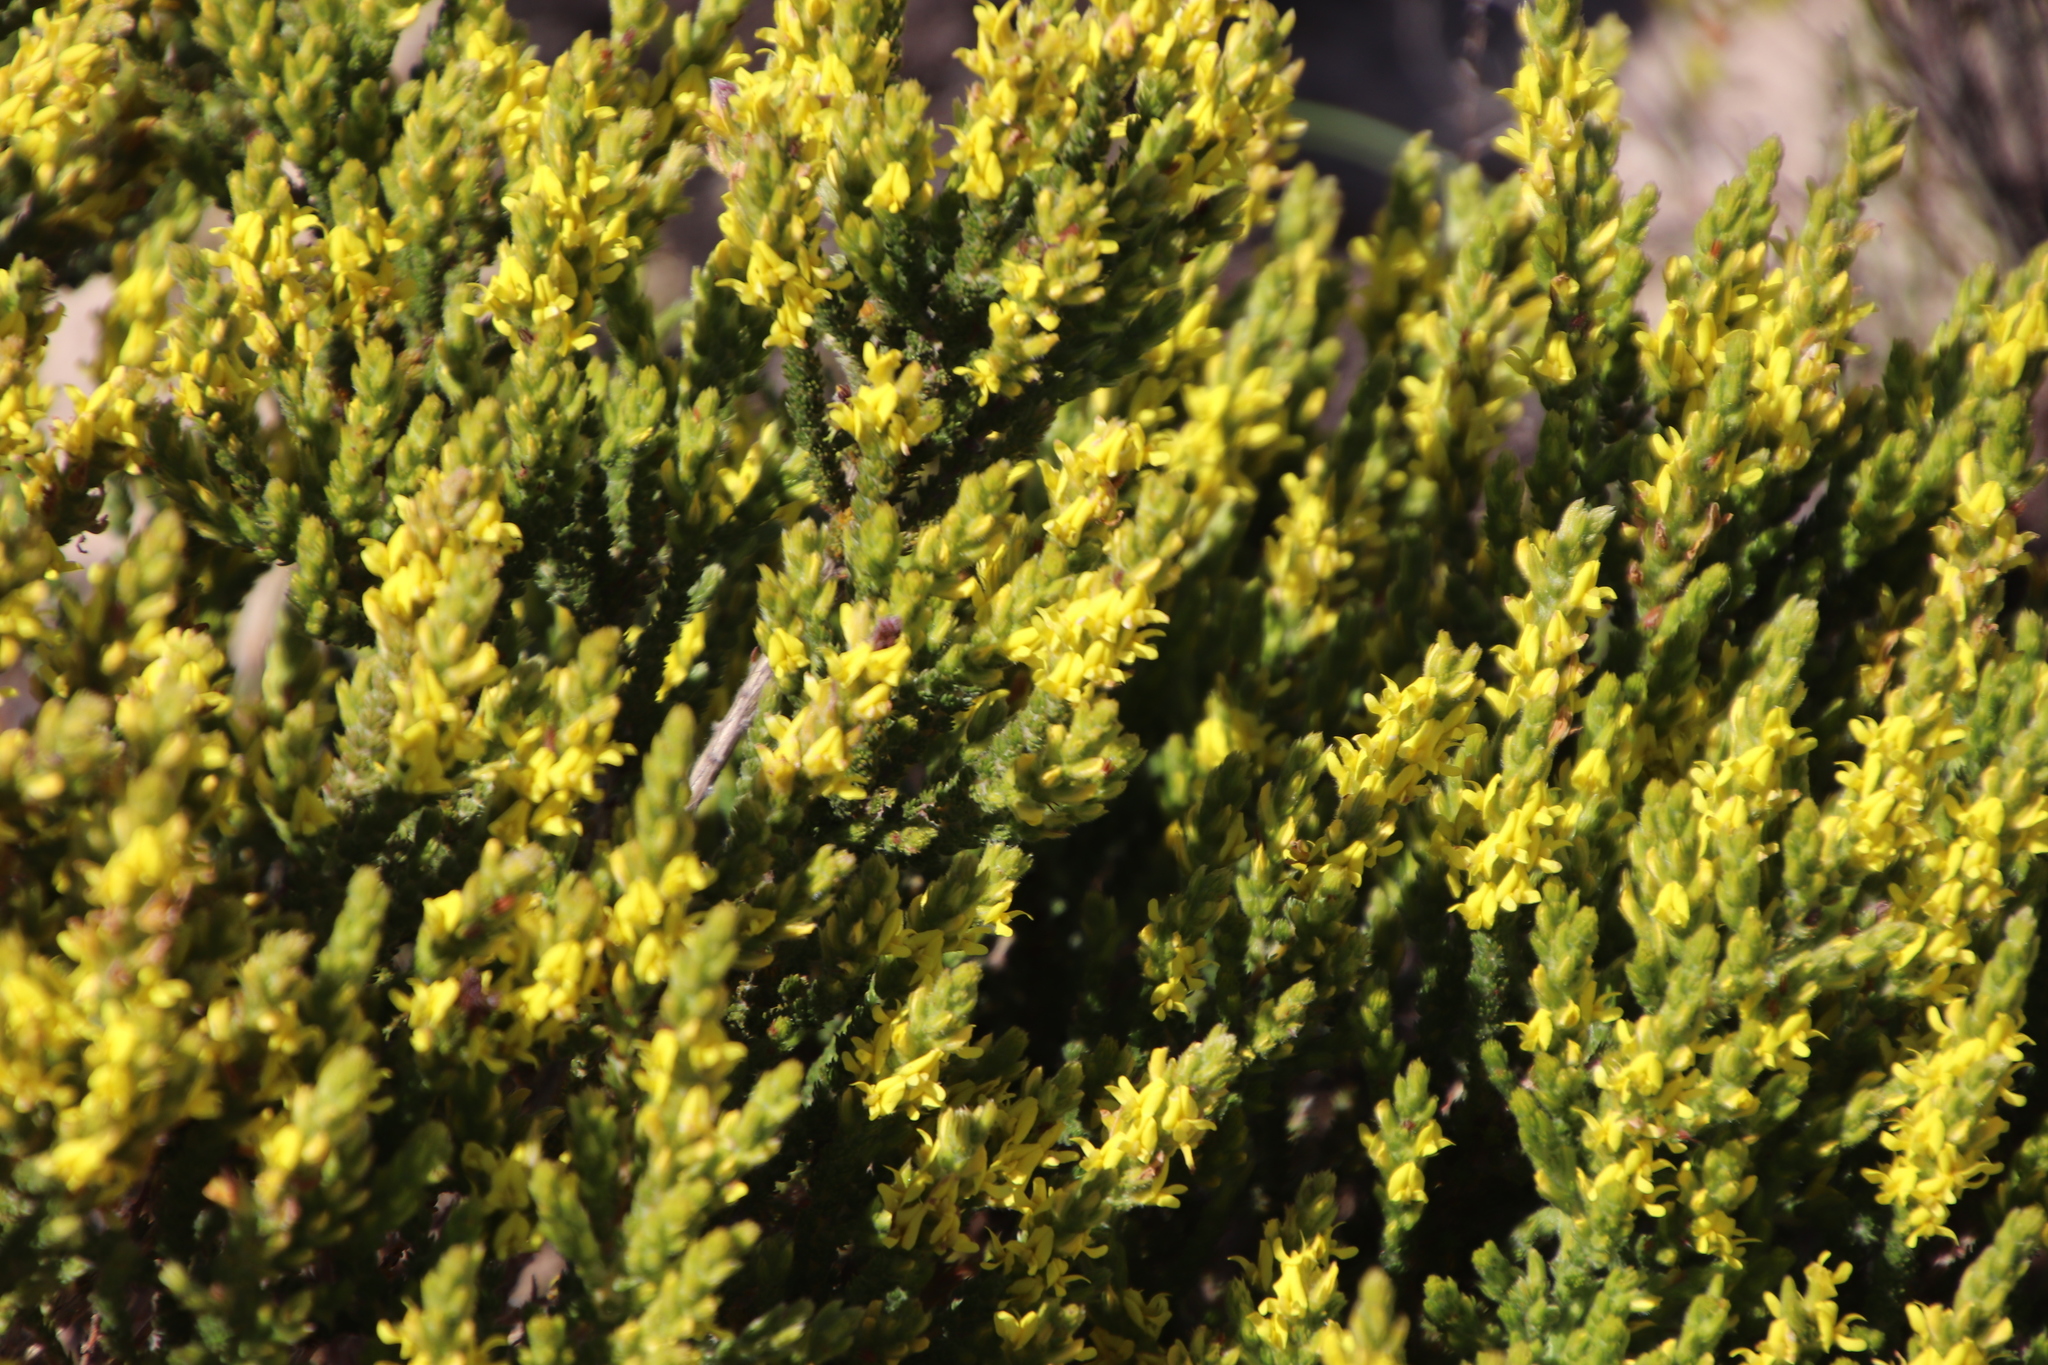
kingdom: Plantae
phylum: Tracheophyta
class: Magnoliopsida
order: Fabales
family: Fabaceae
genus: Aspalathus
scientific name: Aspalathus ericifolia
